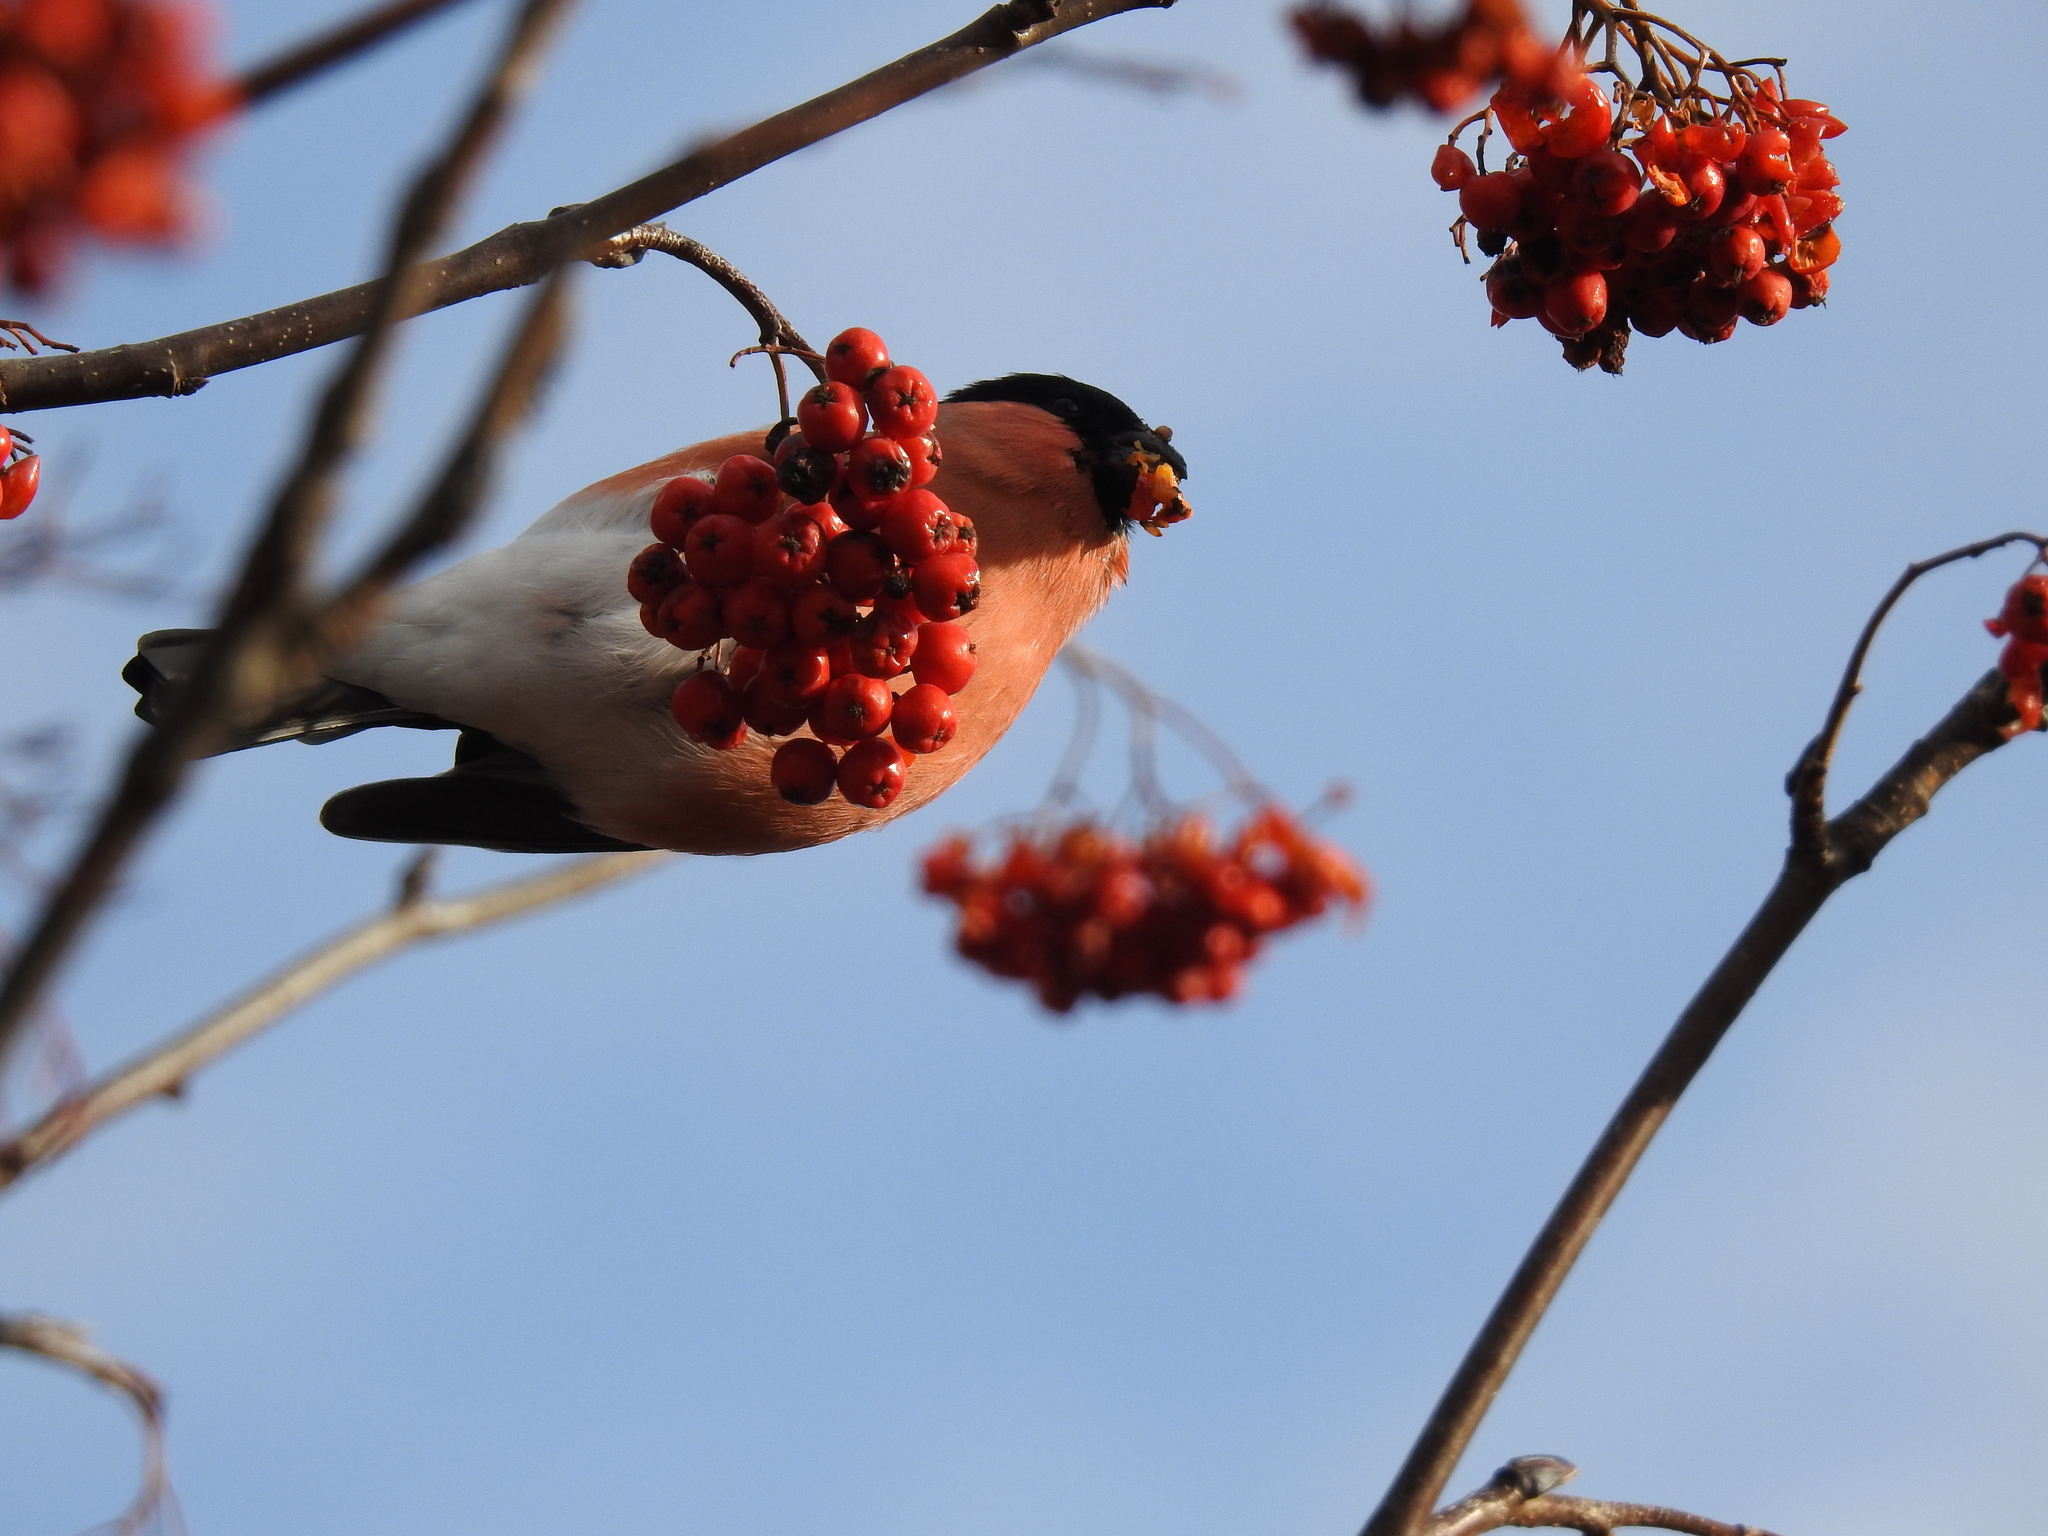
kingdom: Animalia
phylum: Chordata
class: Aves
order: Passeriformes
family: Fringillidae
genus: Pyrrhula
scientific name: Pyrrhula pyrrhula
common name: Eurasian bullfinch
